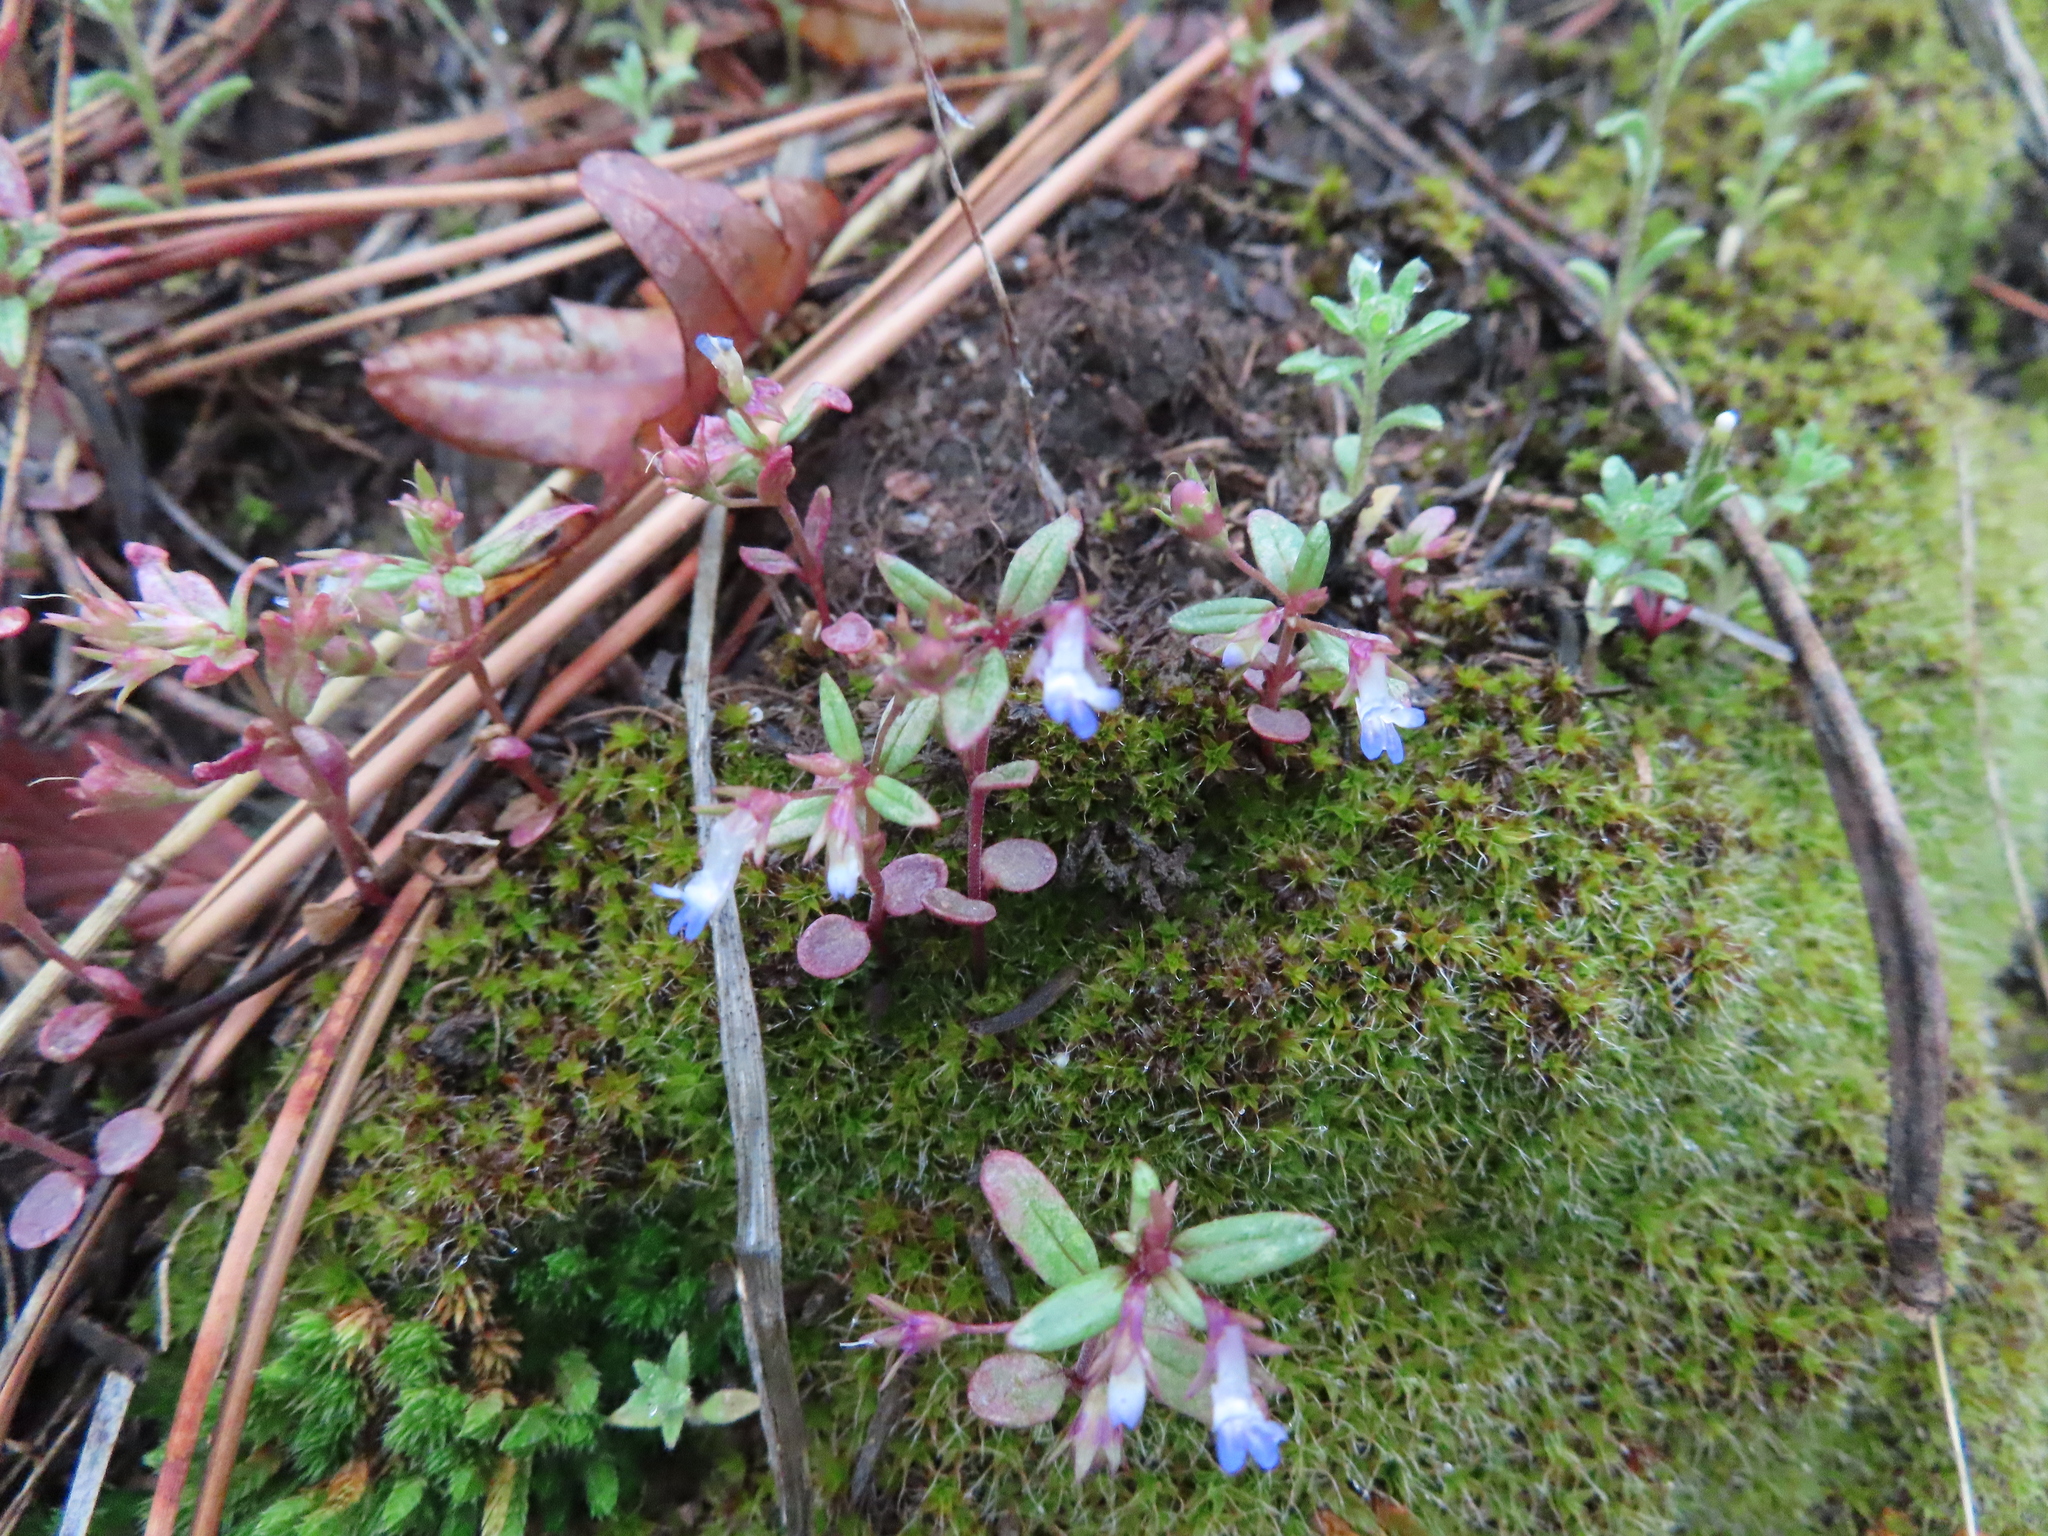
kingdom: Plantae
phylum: Tracheophyta
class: Magnoliopsida
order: Lamiales
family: Plantaginaceae
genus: Collinsia
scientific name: Collinsia parviflora
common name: Blue-lips
